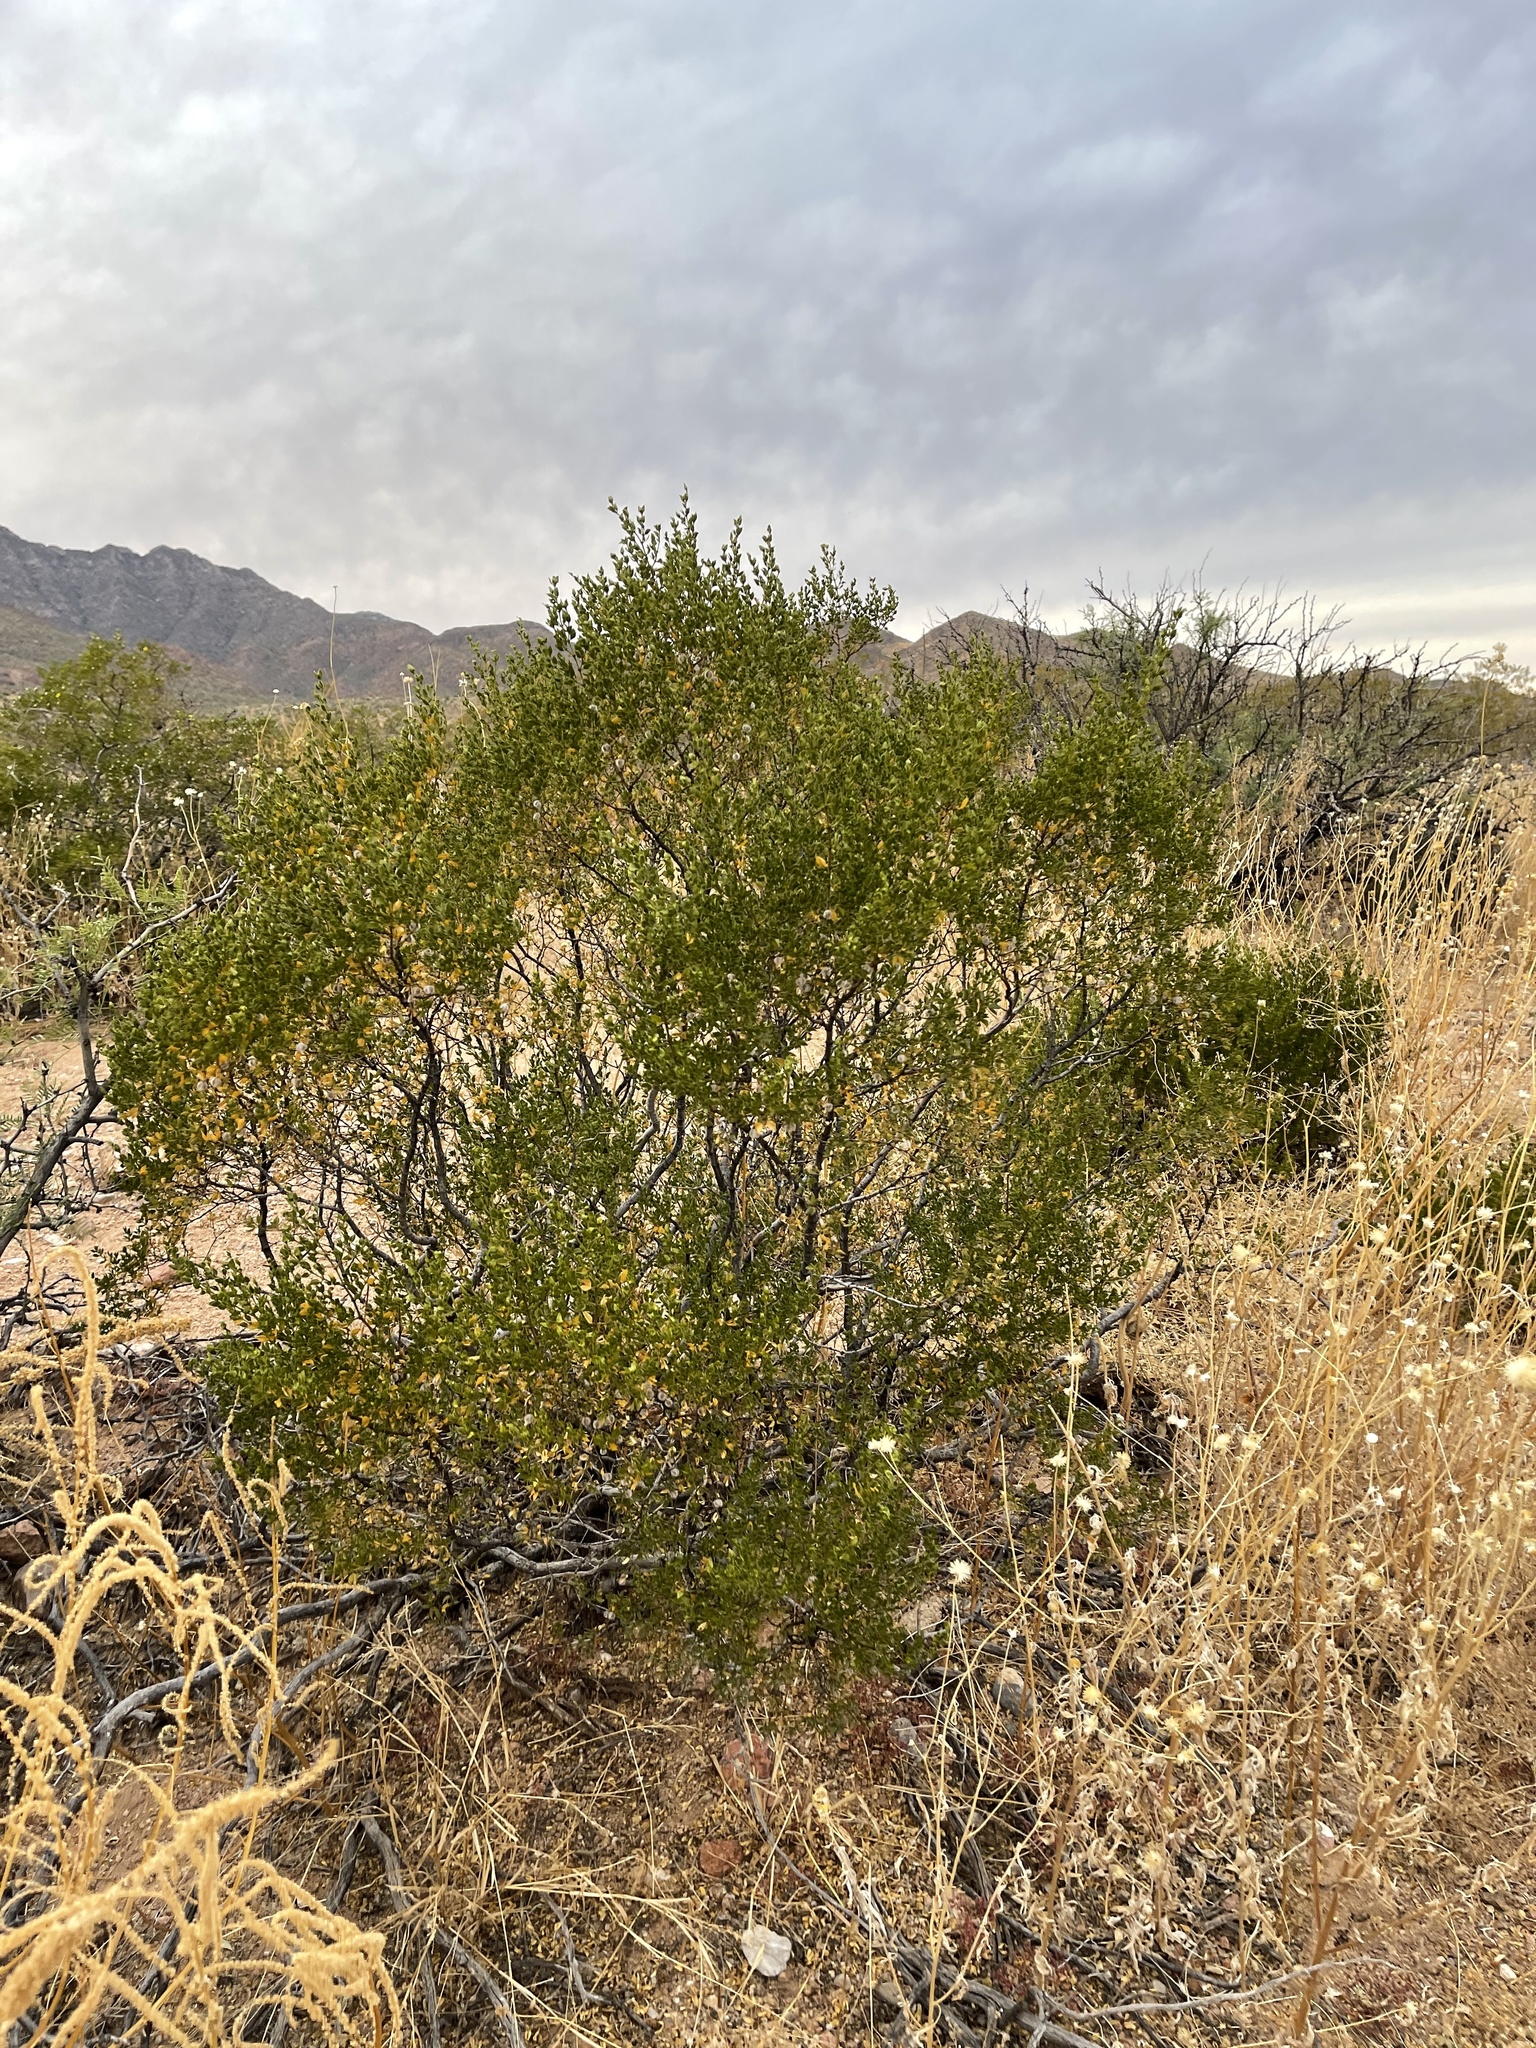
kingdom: Plantae
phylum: Tracheophyta
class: Magnoliopsida
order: Zygophyllales
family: Zygophyllaceae
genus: Larrea
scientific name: Larrea tridentata
